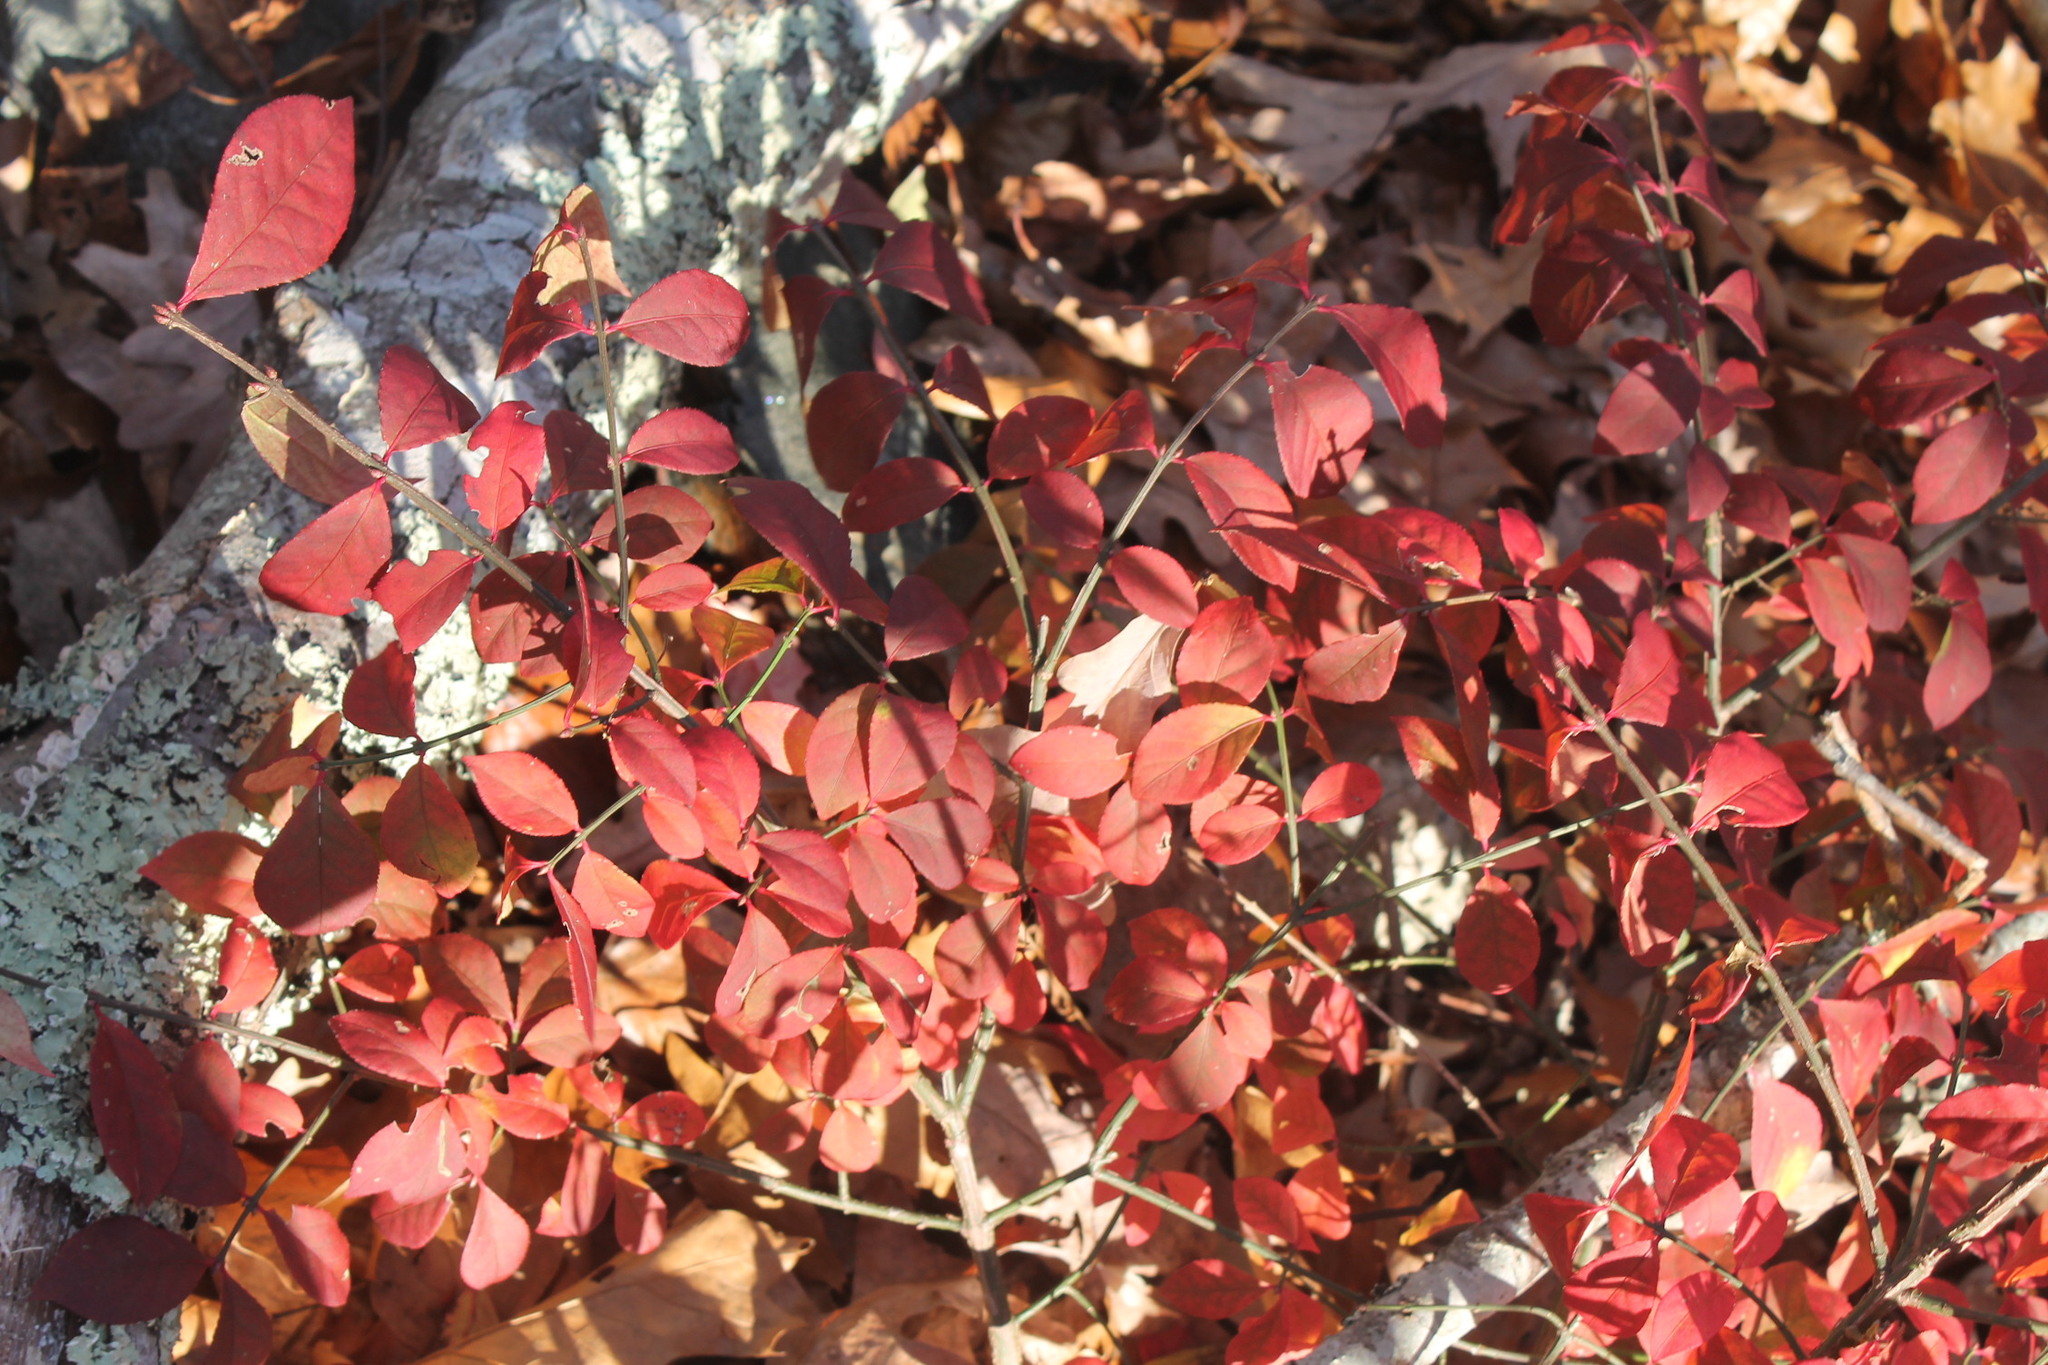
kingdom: Plantae
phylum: Tracheophyta
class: Magnoliopsida
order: Celastrales
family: Celastraceae
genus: Euonymus
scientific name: Euonymus alatus
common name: Winged euonymus
